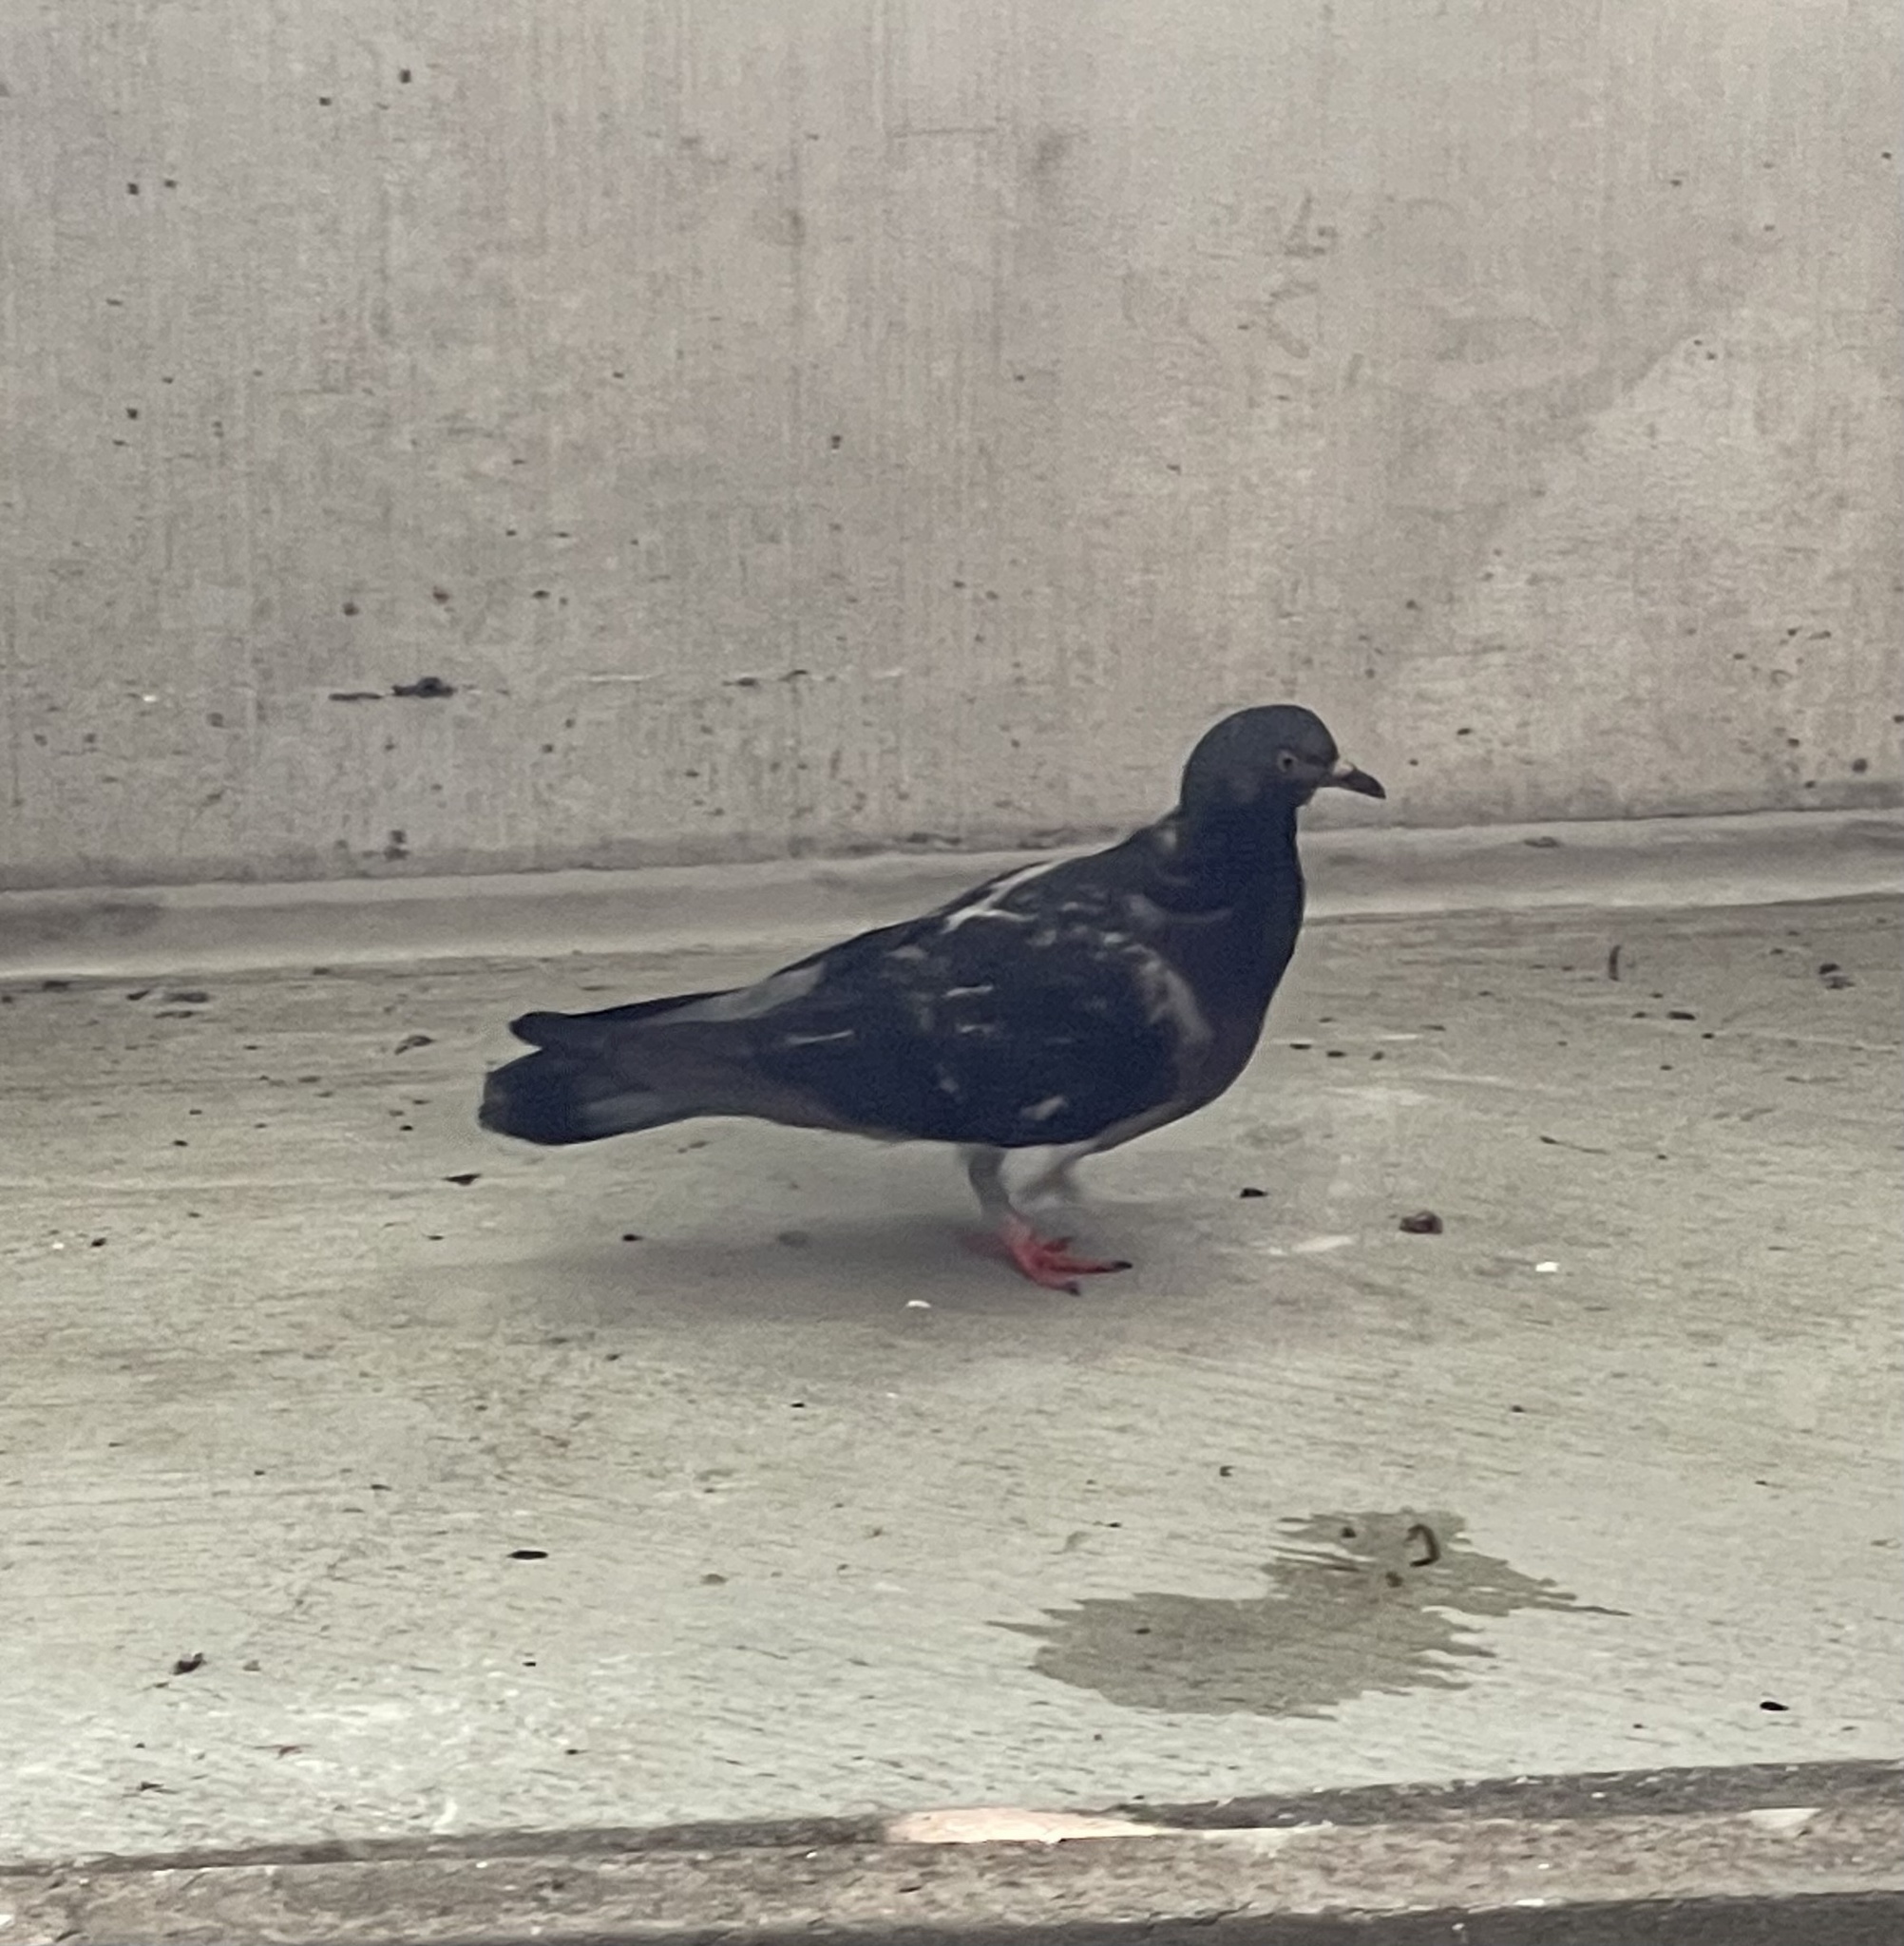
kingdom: Animalia
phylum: Chordata
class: Aves
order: Columbiformes
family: Columbidae
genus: Columba
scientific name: Columba livia
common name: Rock pigeon
